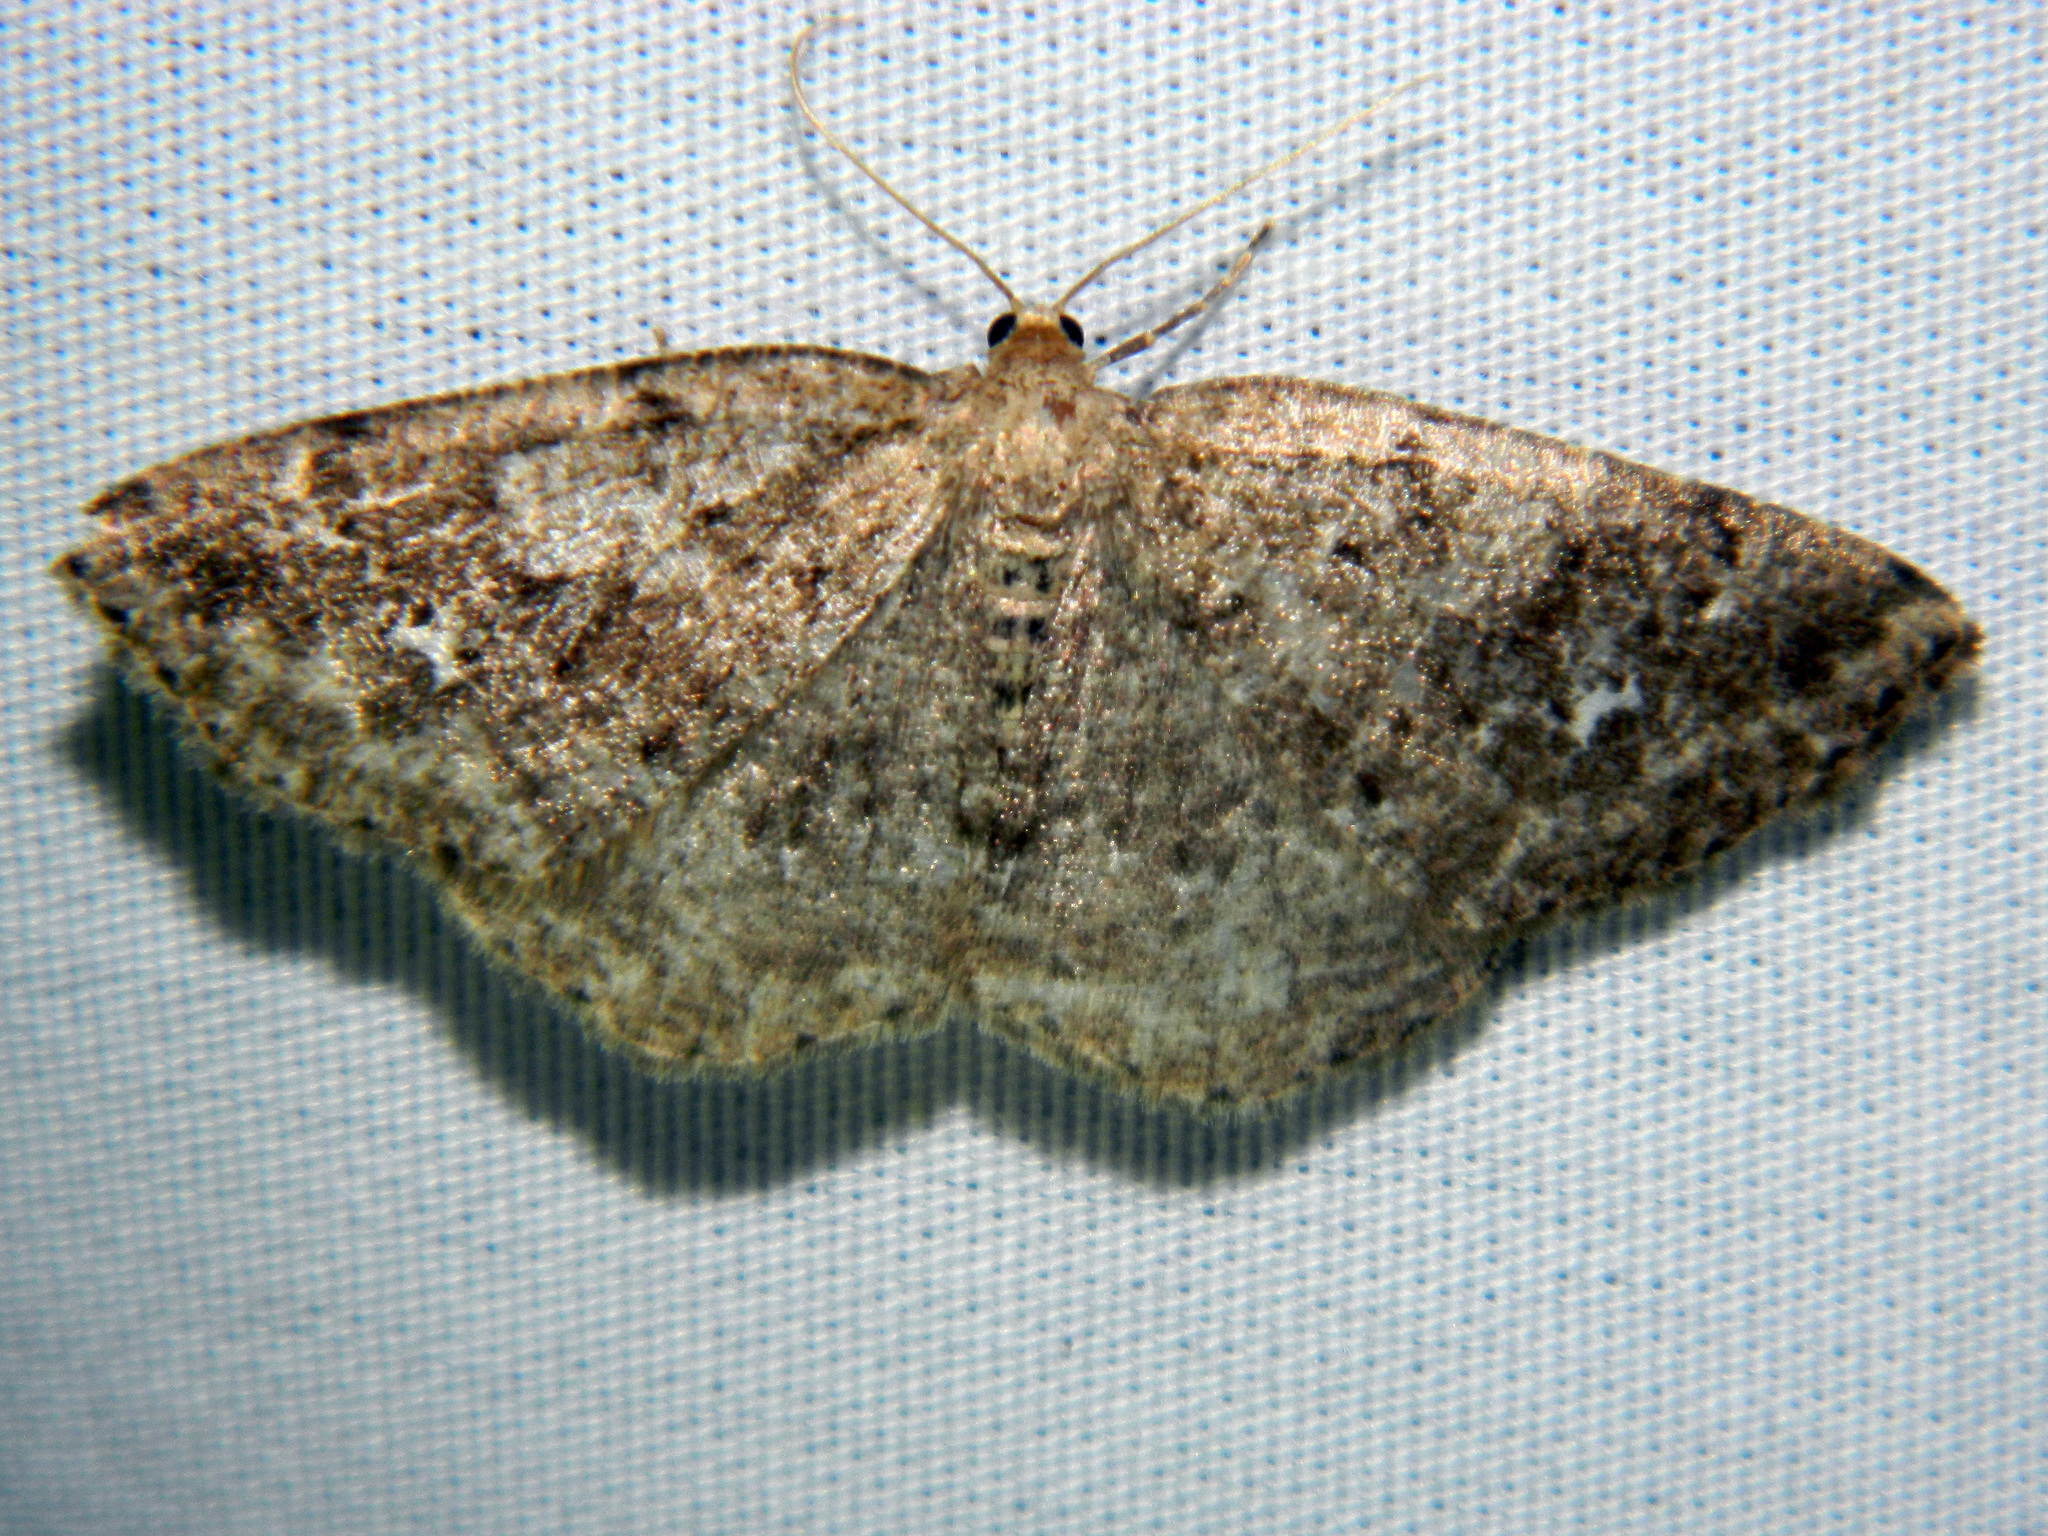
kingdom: Animalia
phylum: Arthropoda
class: Insecta
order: Lepidoptera
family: Geometridae
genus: Homochlodes
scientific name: Homochlodes fritillaria
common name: Pale homochlodes
